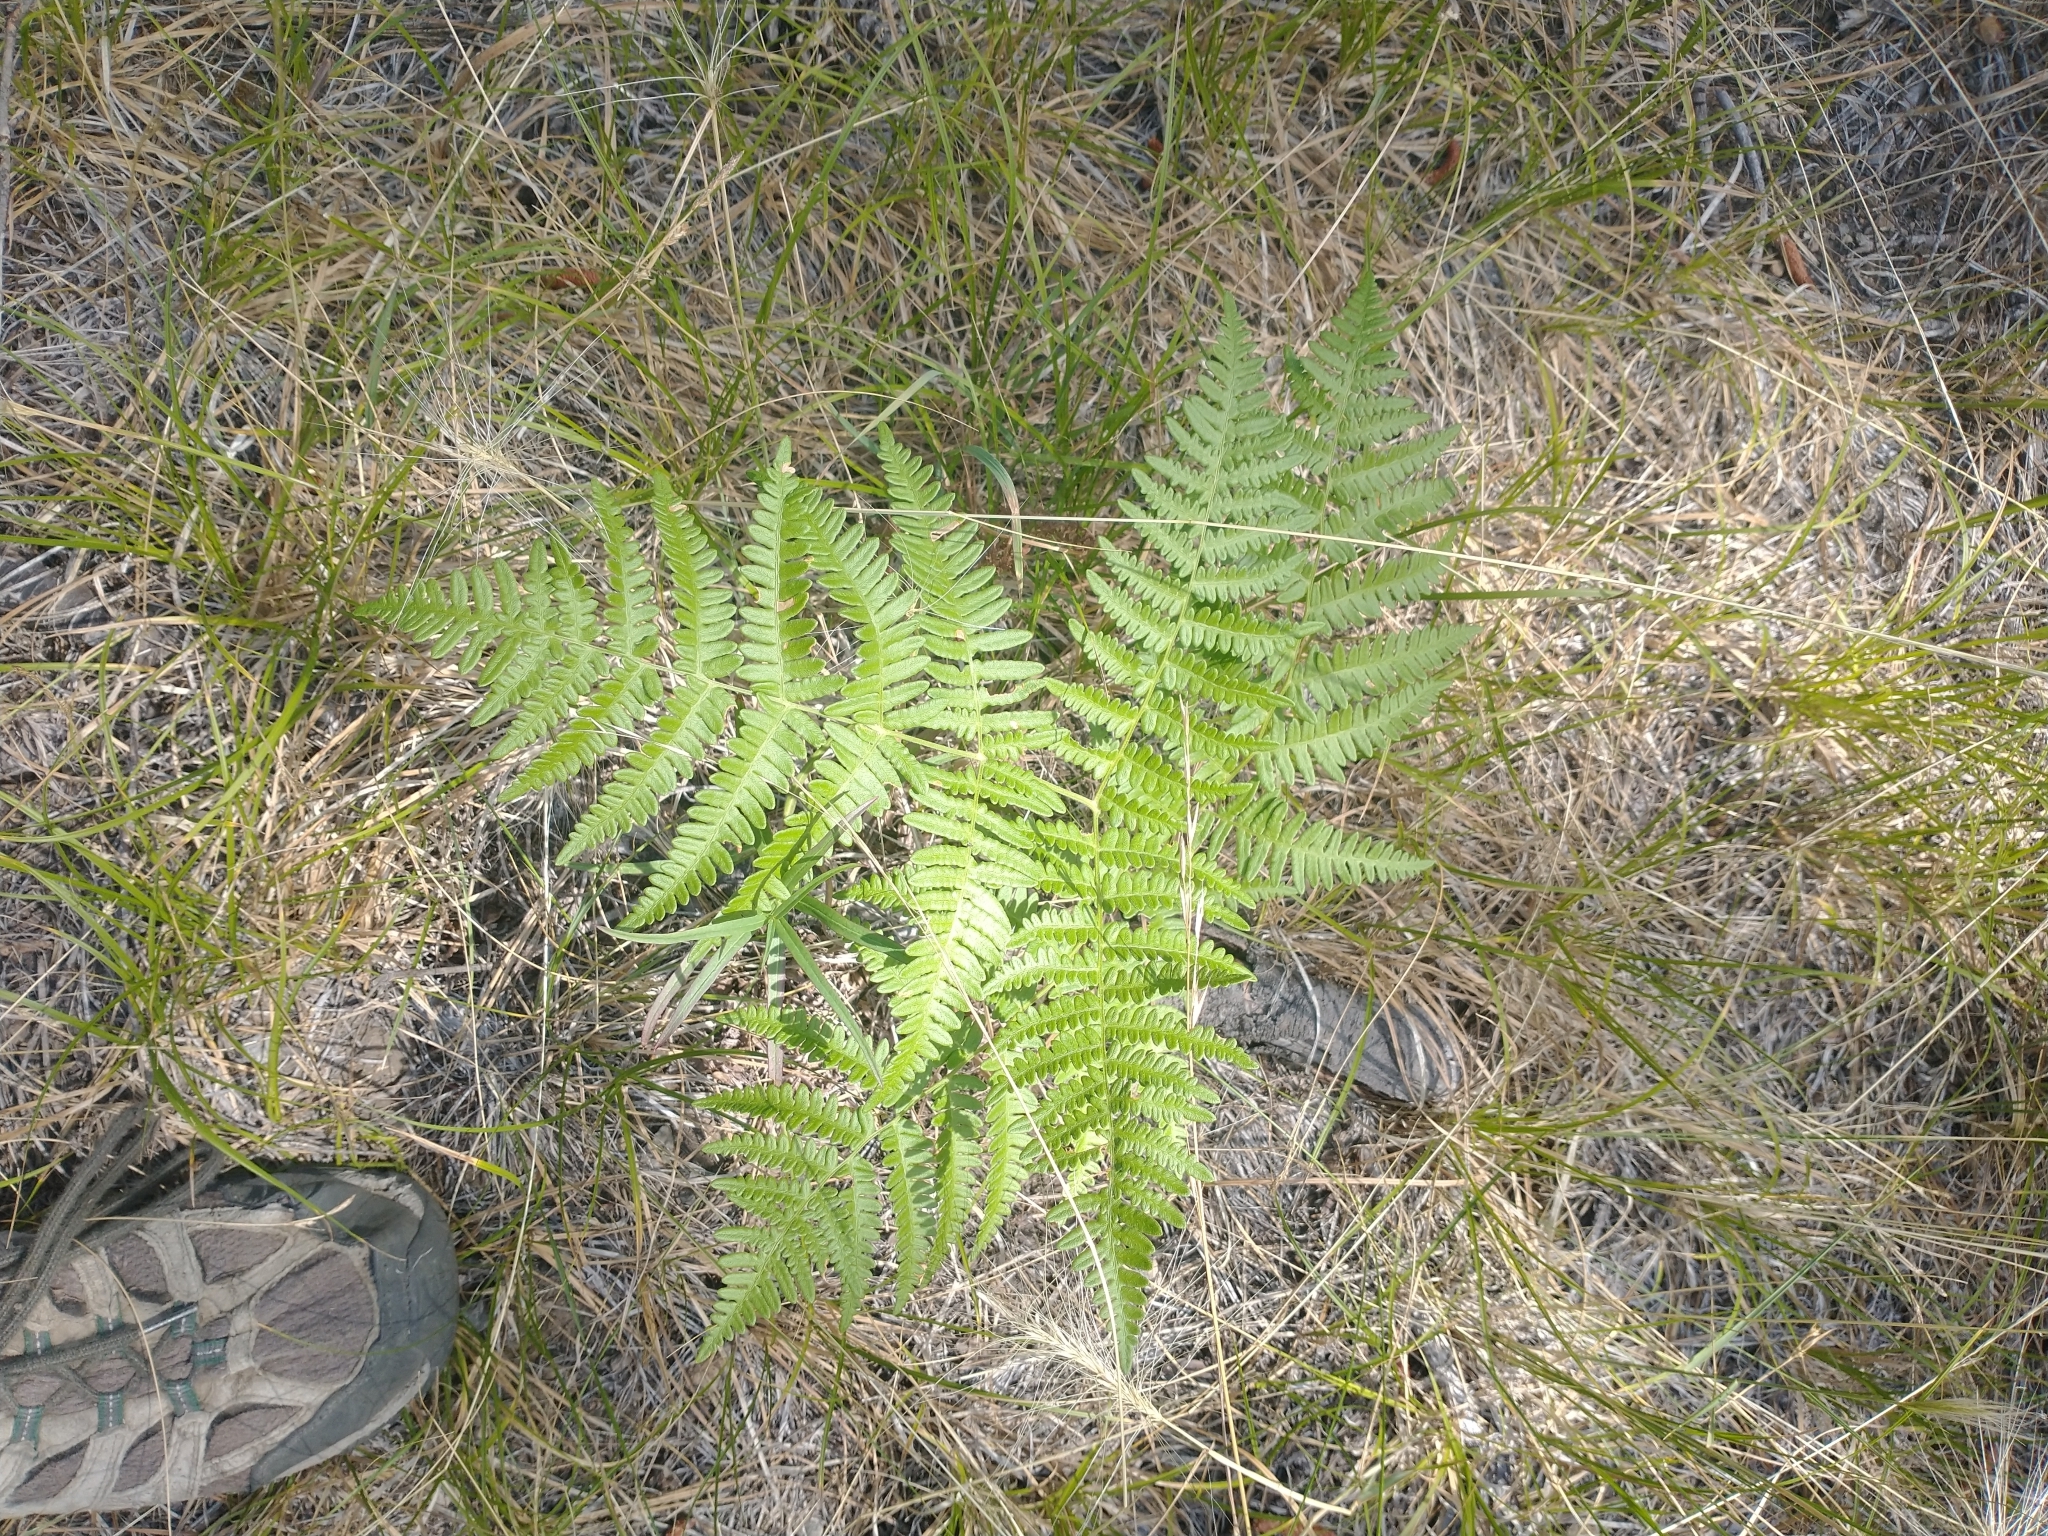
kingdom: Plantae
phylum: Tracheophyta
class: Polypodiopsida
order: Polypodiales
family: Dennstaedtiaceae
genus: Pteridium
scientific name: Pteridium aquilinum
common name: Bracken
